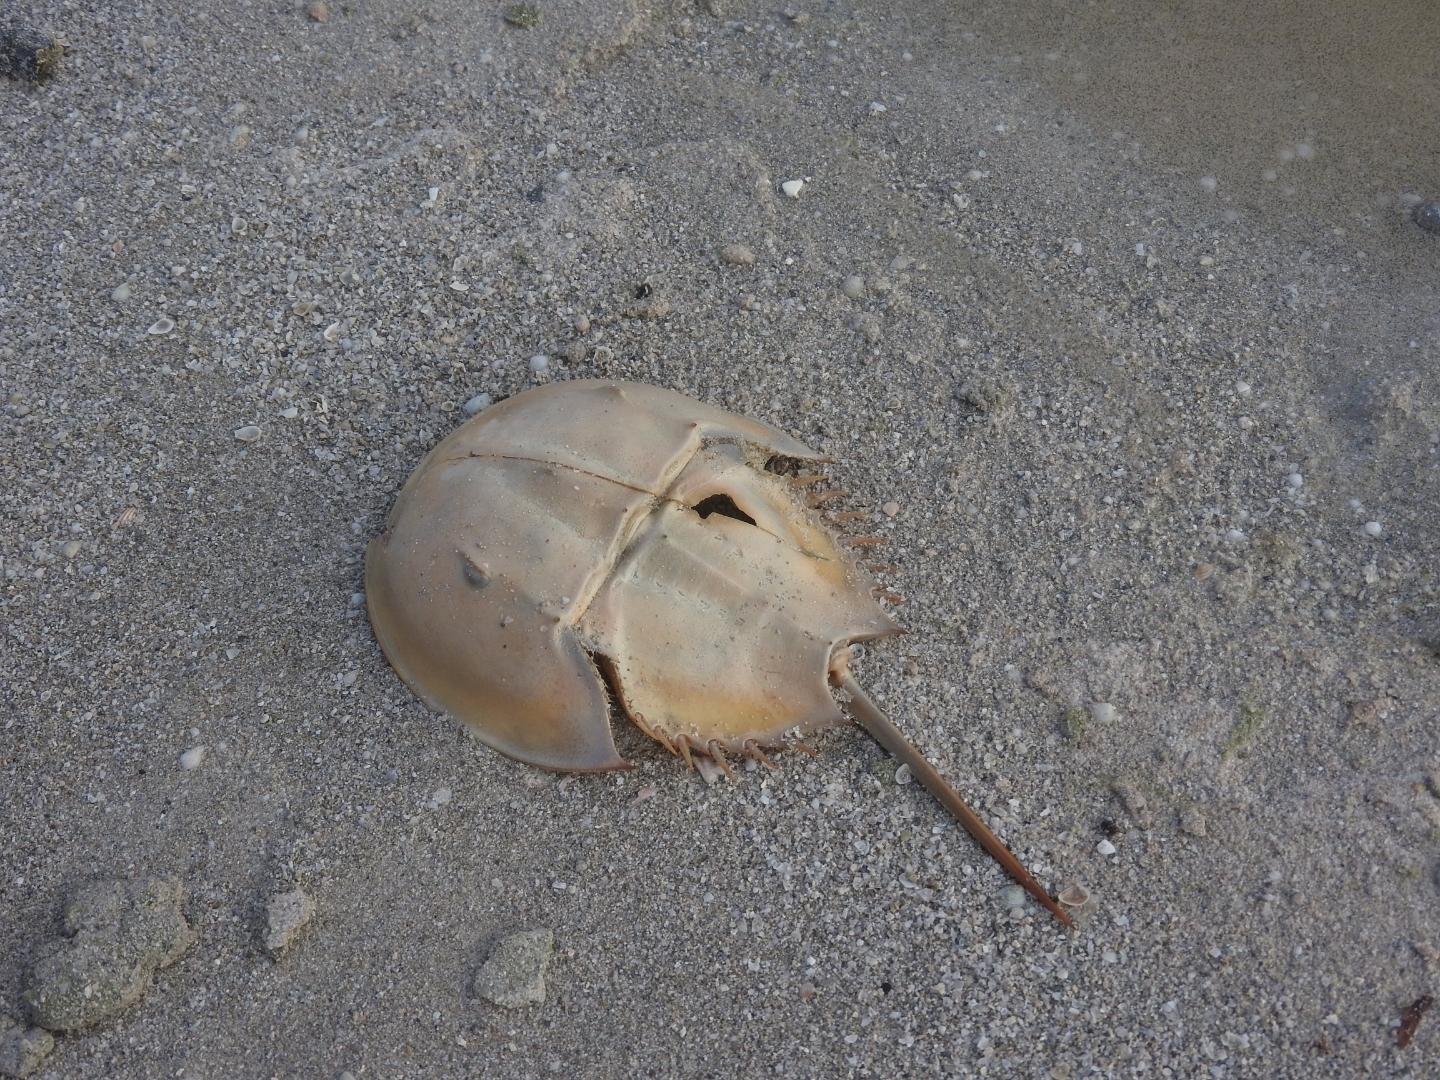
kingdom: Animalia
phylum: Arthropoda
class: Merostomata
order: Xiphosurida
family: Limulidae
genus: Limulus
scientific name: Limulus polyphemus
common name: Horseshoe crab
